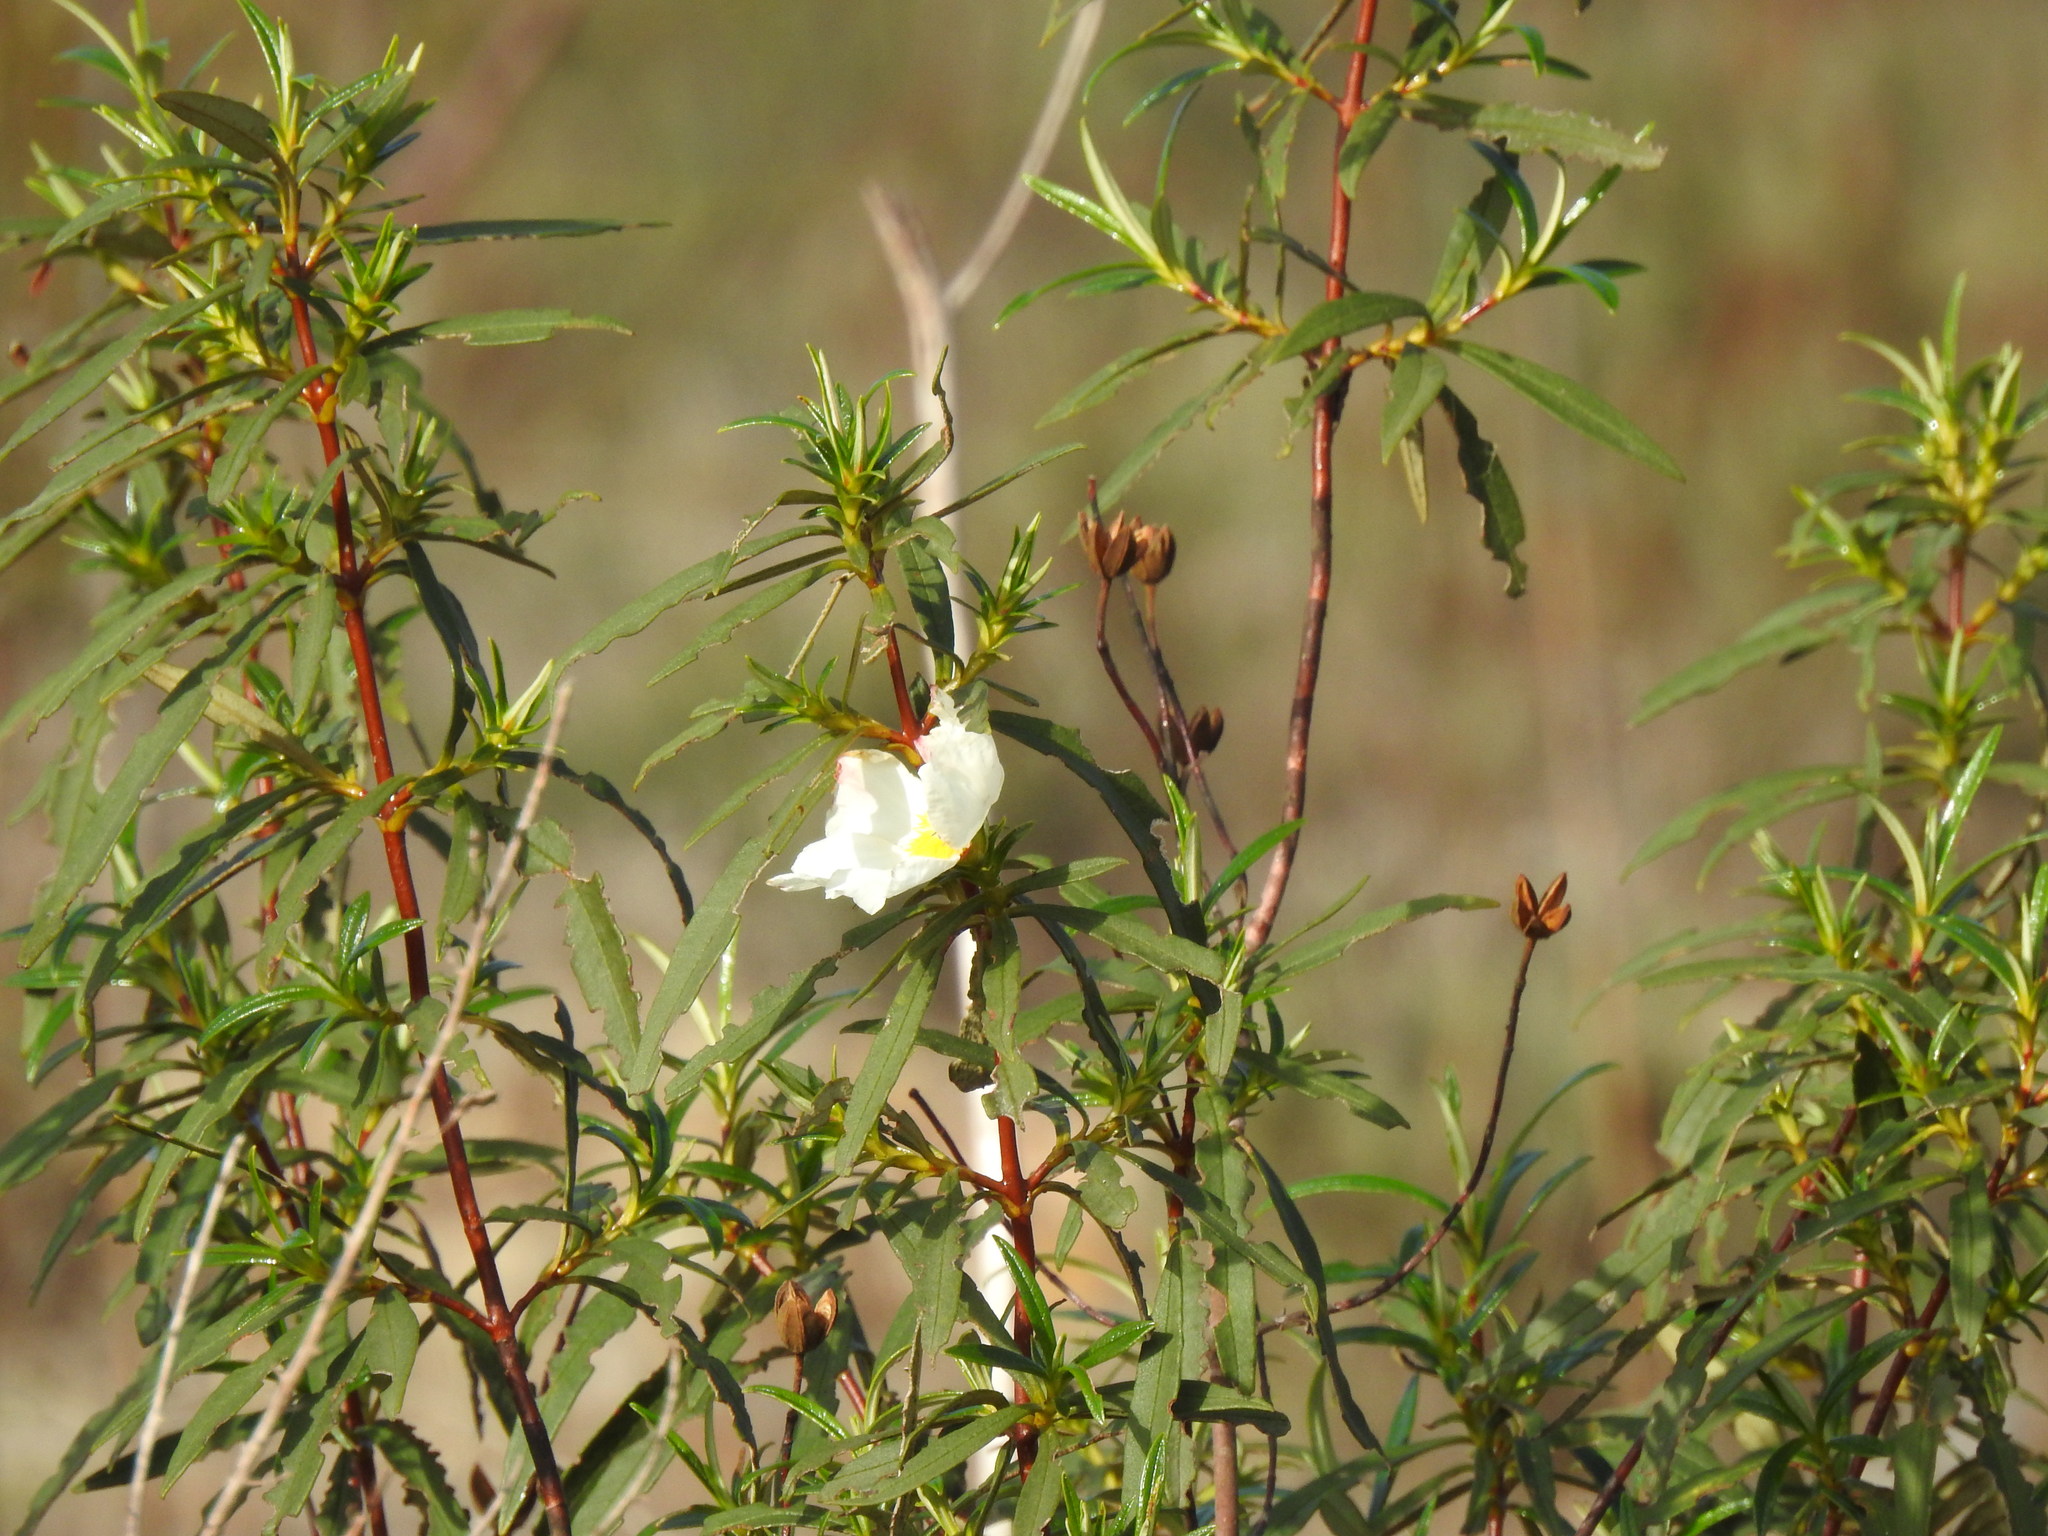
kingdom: Plantae
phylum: Tracheophyta
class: Magnoliopsida
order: Malvales
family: Cistaceae
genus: Cistus
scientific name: Cistus ladanifer
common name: Common gum cistus
